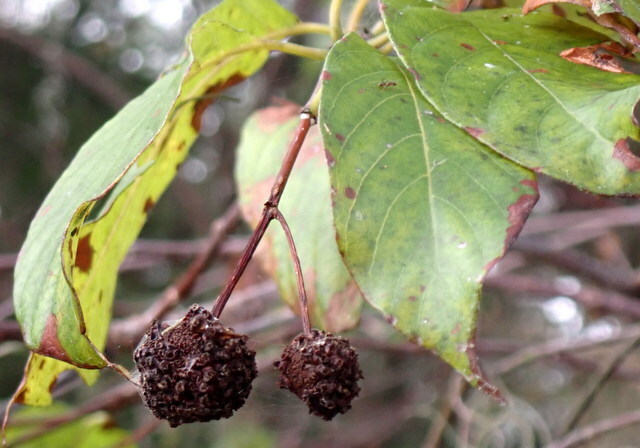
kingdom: Plantae
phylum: Tracheophyta
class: Magnoliopsida
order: Gentianales
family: Rubiaceae
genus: Cephalanthus
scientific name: Cephalanthus occidentalis
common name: Button-willow
